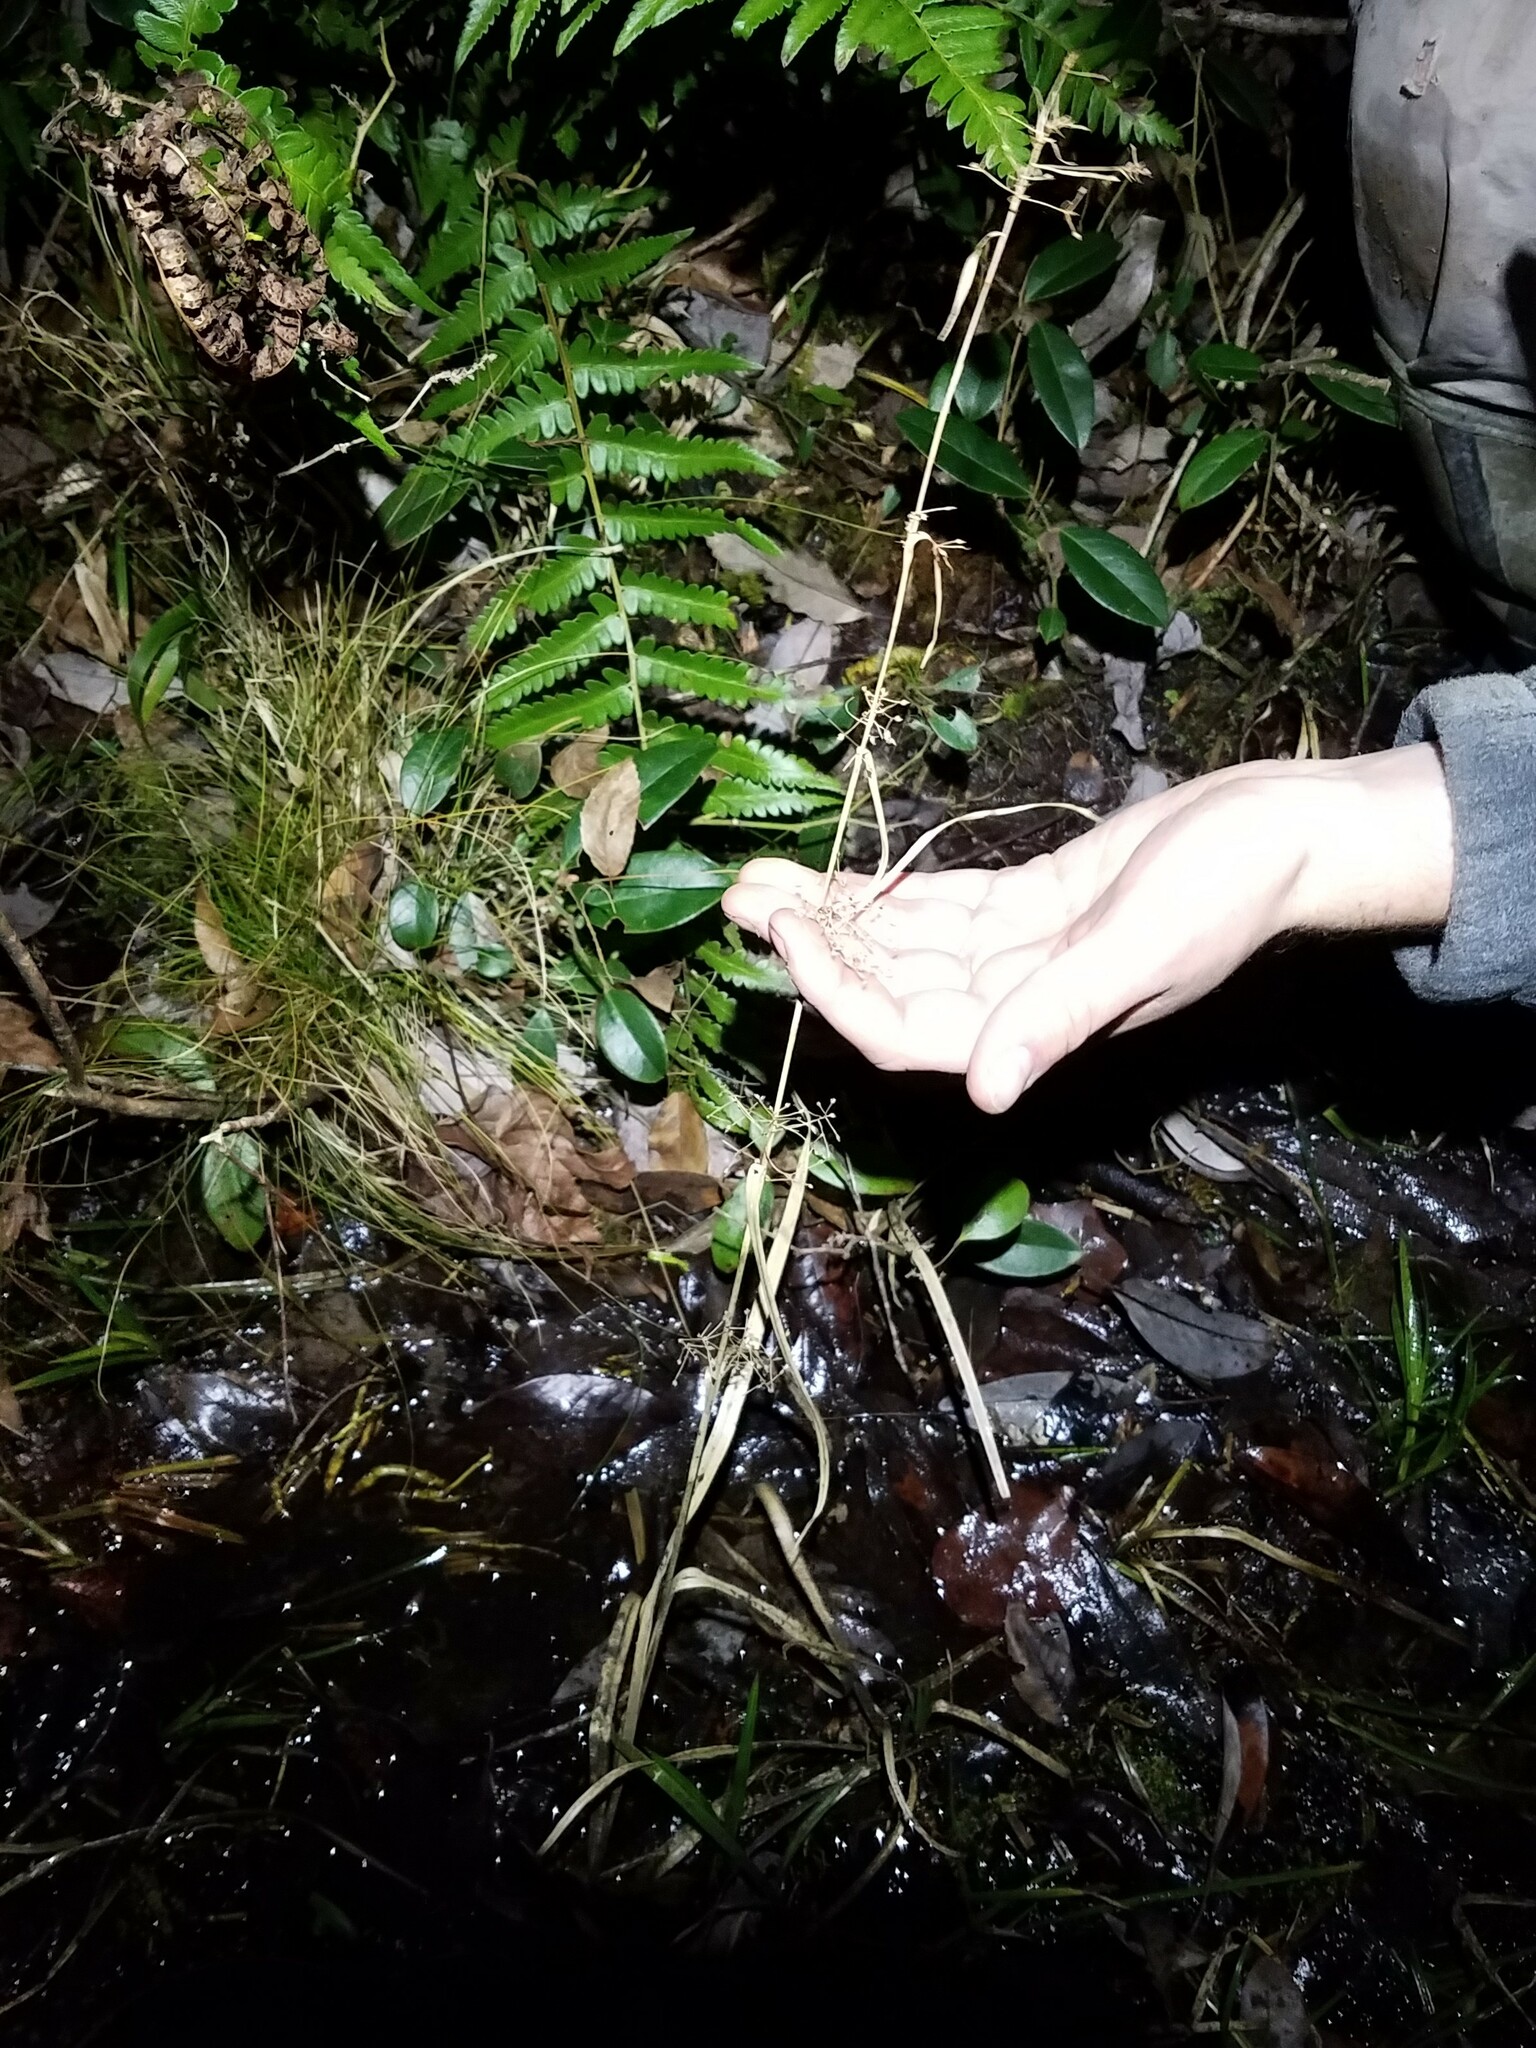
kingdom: Plantae
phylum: Tracheophyta
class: Liliopsida
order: Poales
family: Cyperaceae
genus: Rhynchospora
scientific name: Rhynchospora miliacea
